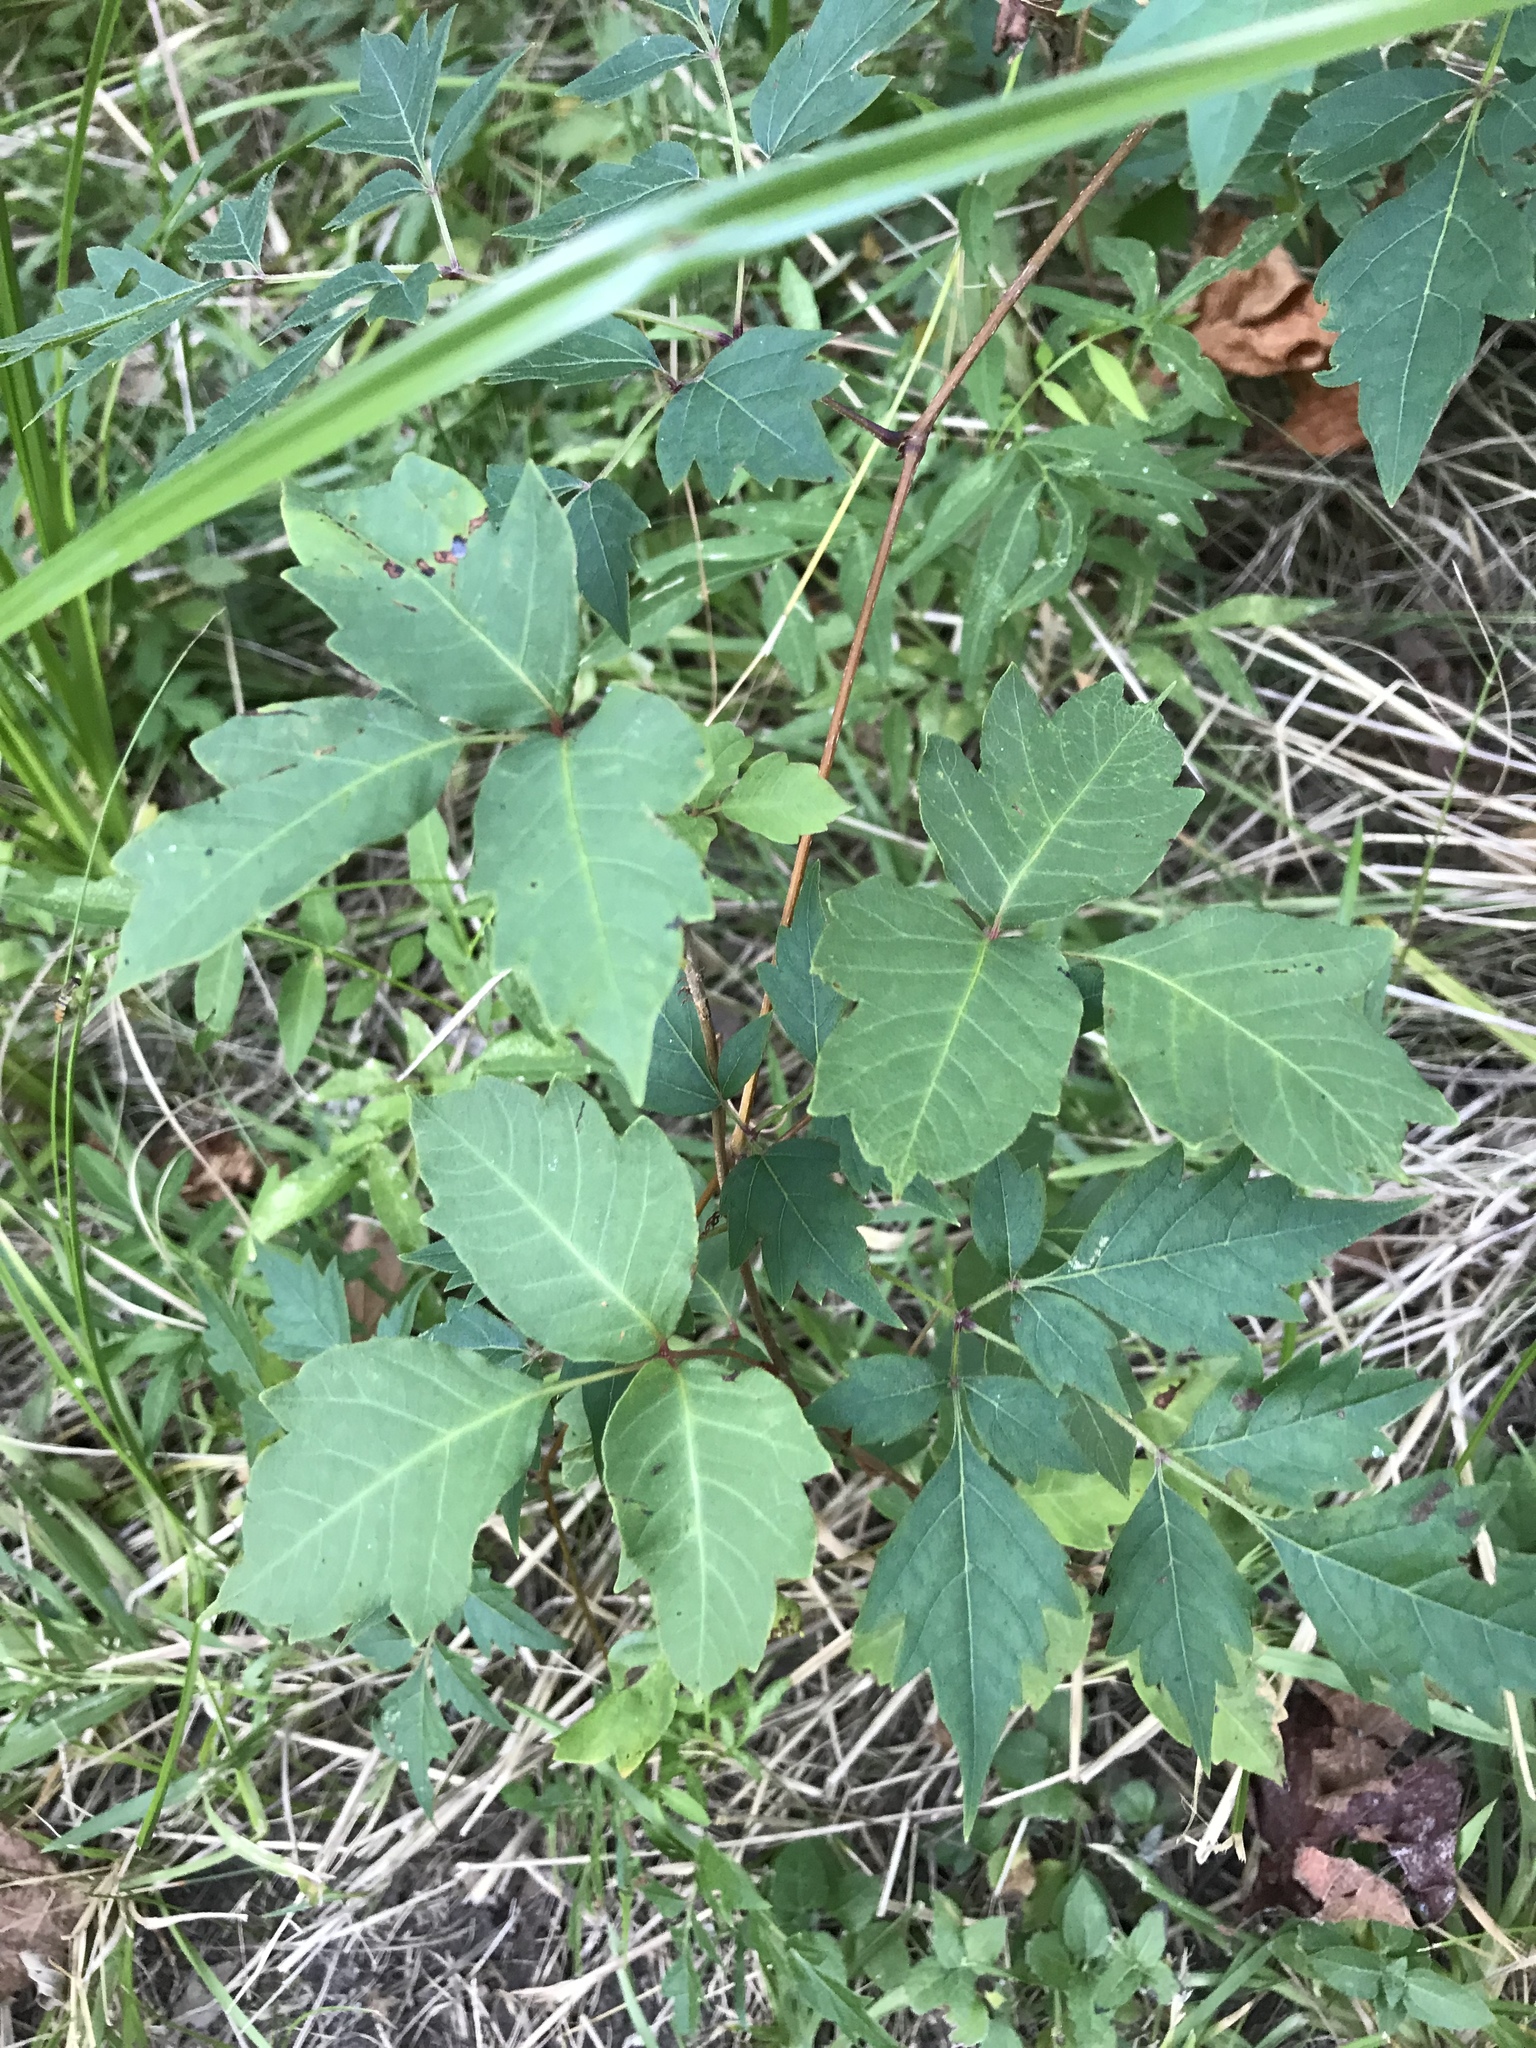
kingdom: Plantae
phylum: Tracheophyta
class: Magnoliopsida
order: Sapindales
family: Anacardiaceae
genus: Toxicodendron
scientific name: Toxicodendron radicans
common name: Poison ivy
